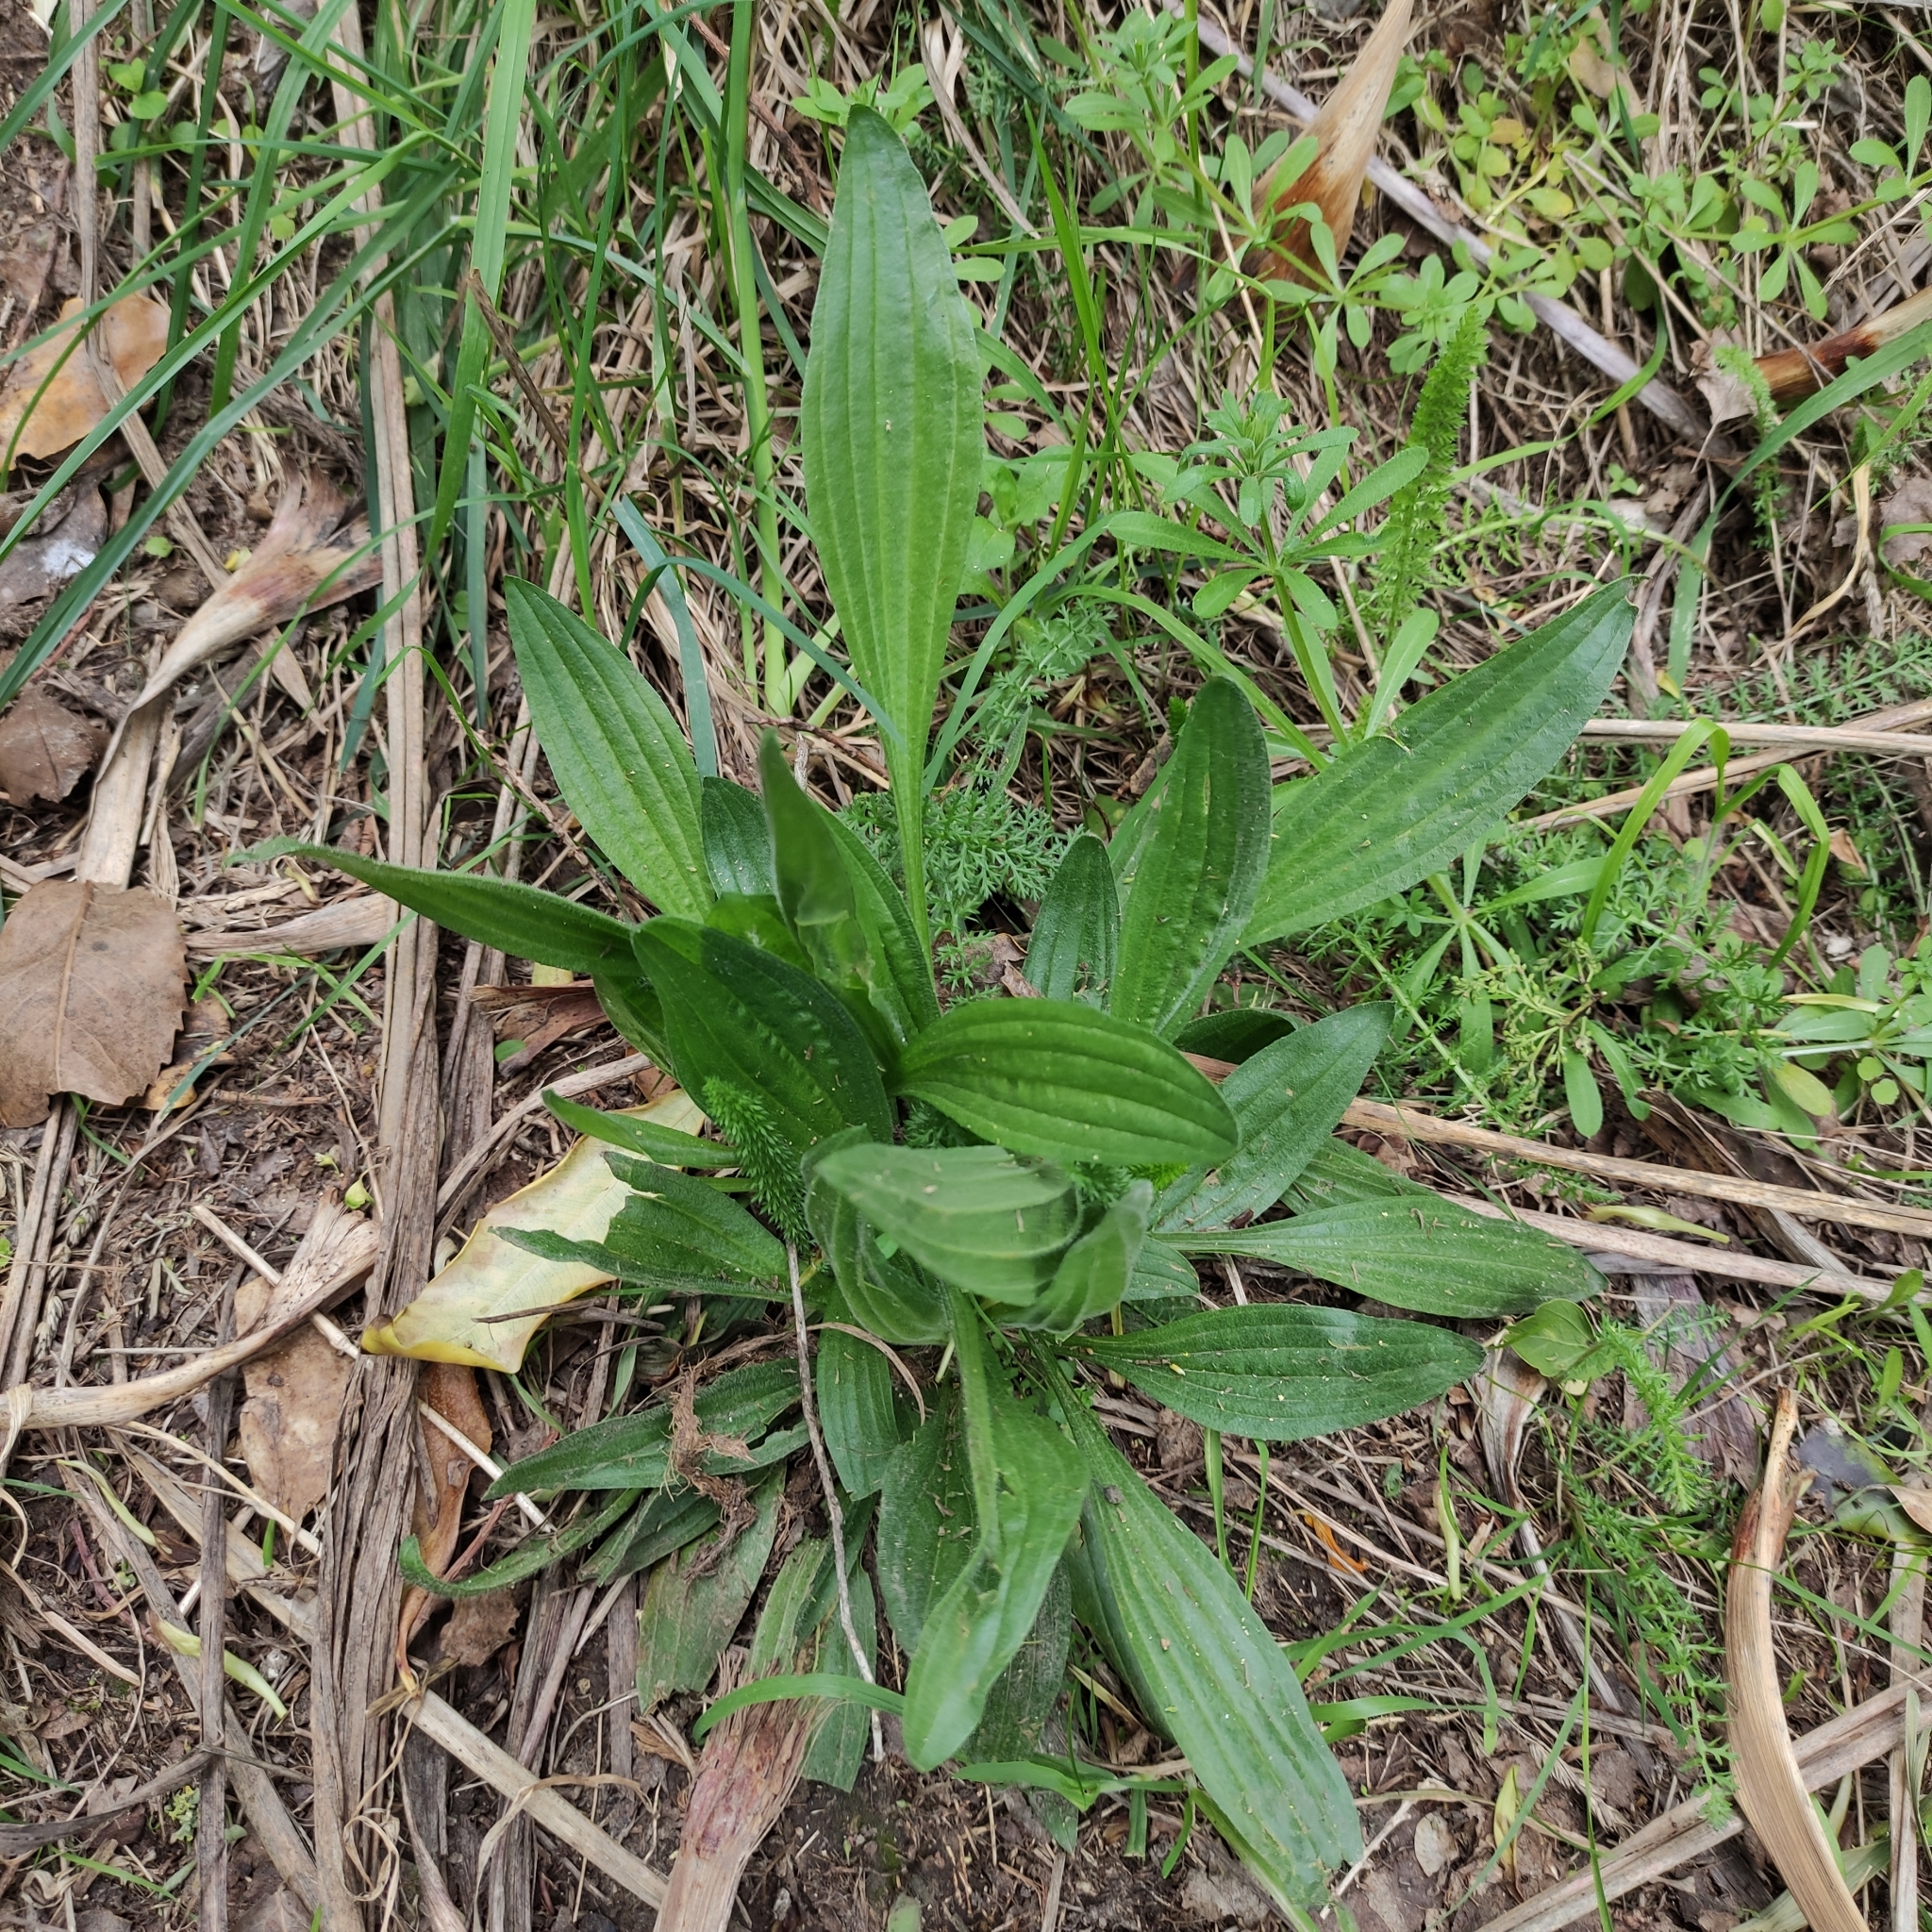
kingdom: Plantae
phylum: Tracheophyta
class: Magnoliopsida
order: Lamiales
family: Plantaginaceae
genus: Plantago
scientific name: Plantago lanceolata
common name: Ribwort plantain
